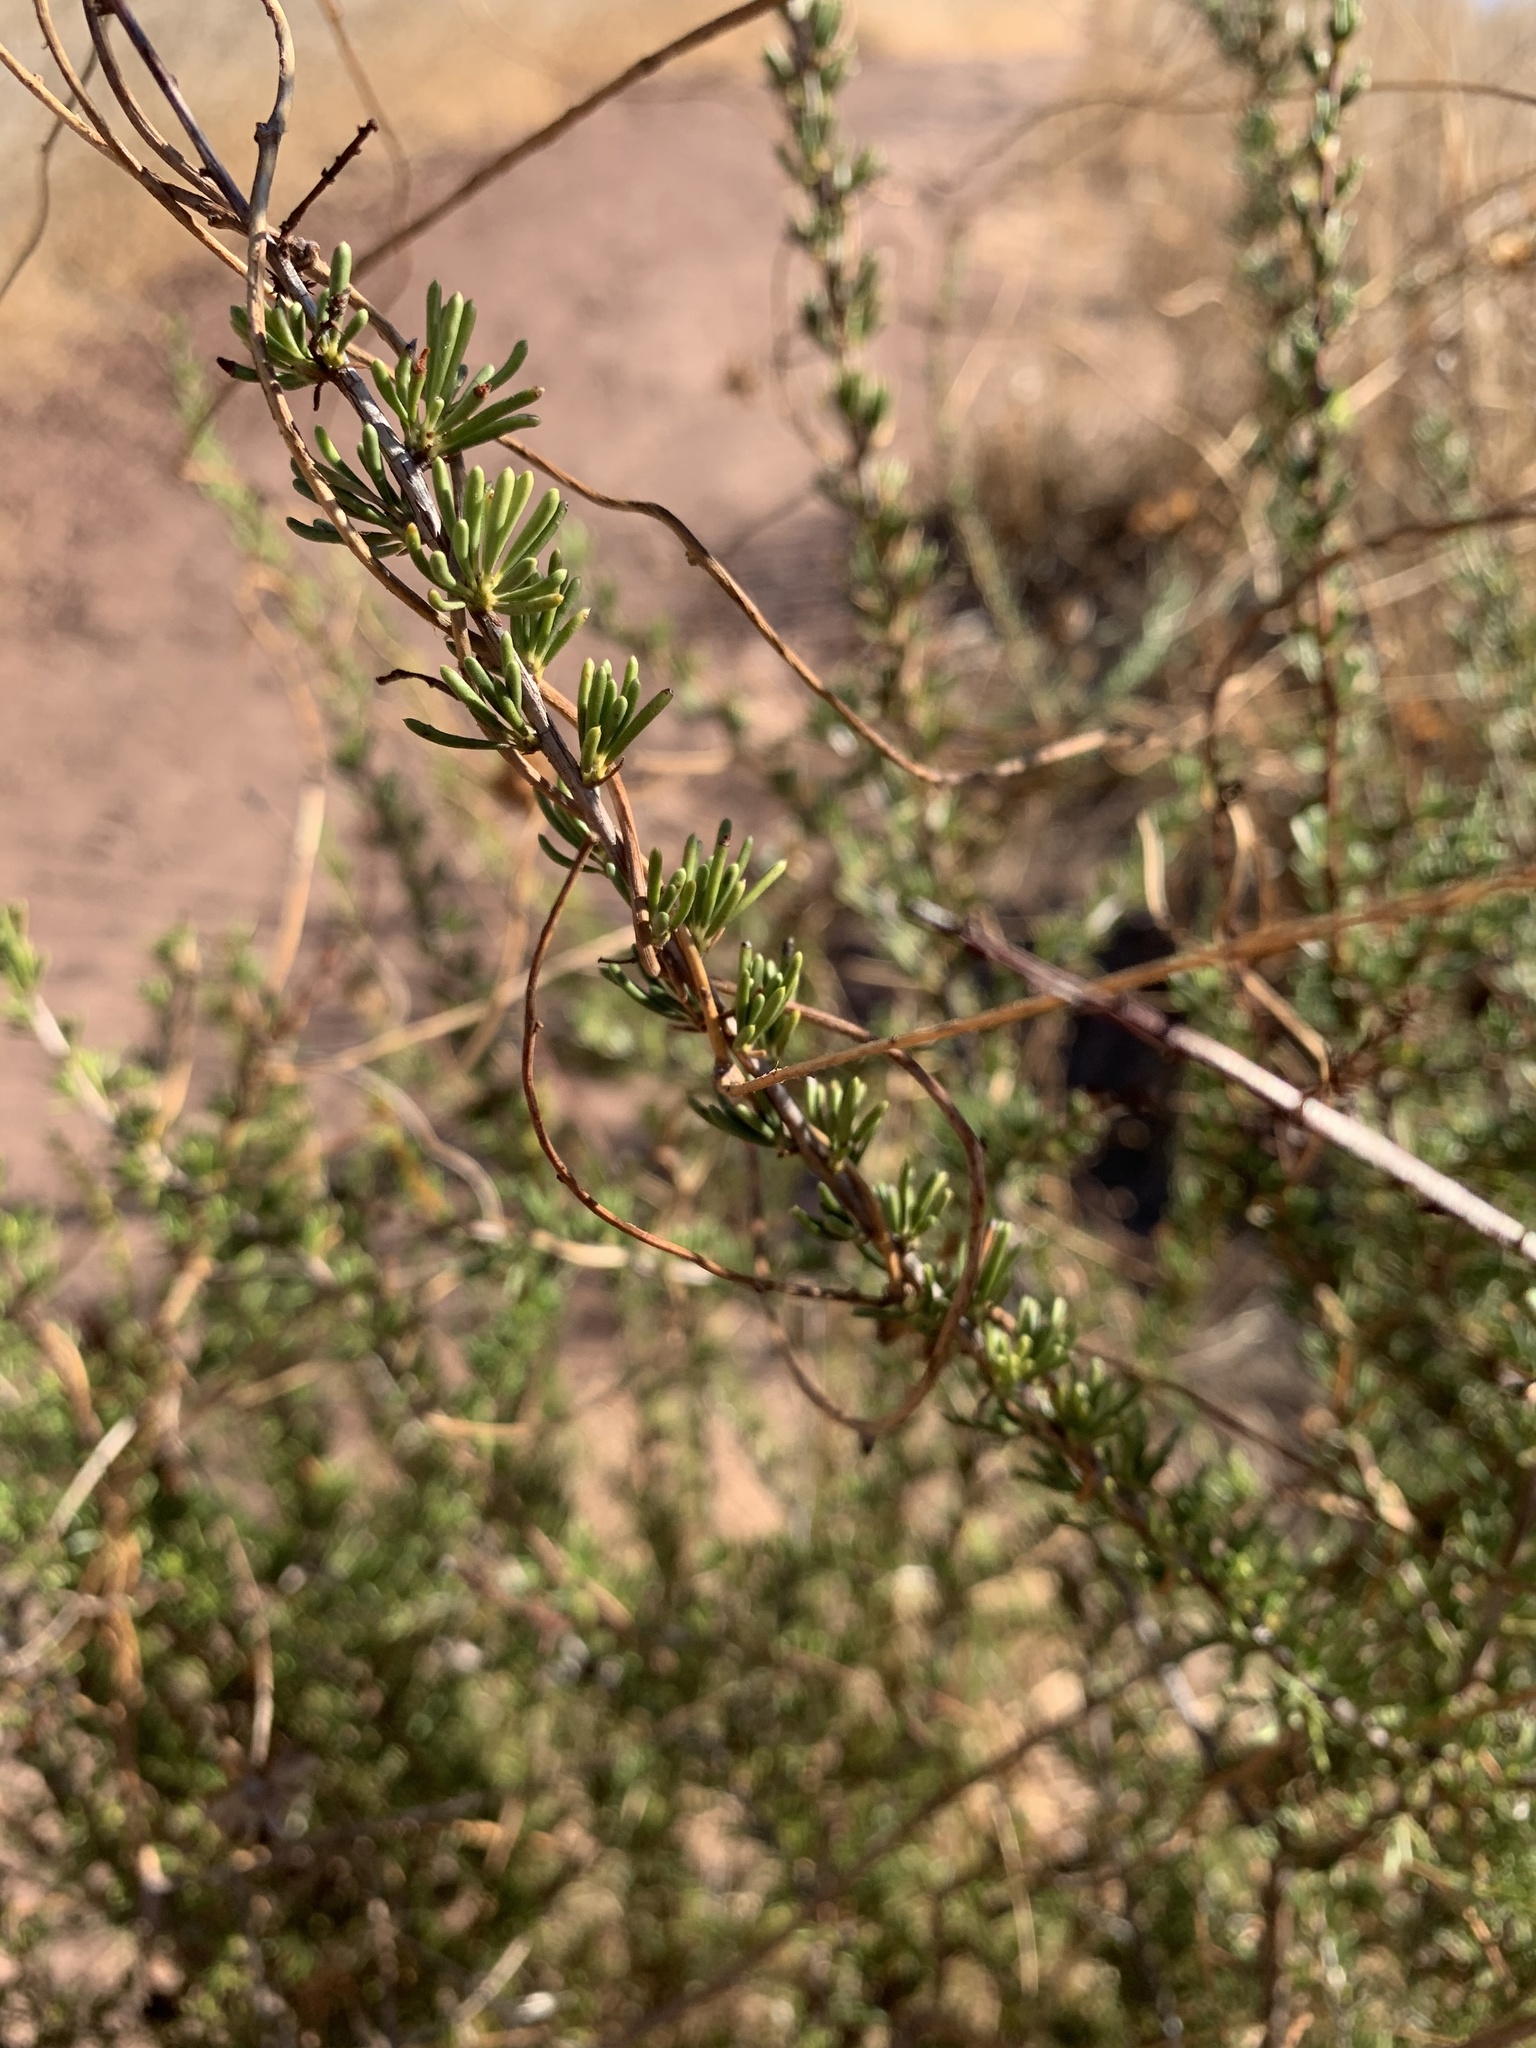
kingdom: Plantae
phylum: Tracheophyta
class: Magnoliopsida
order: Rosales
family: Rosaceae
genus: Adenostoma
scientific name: Adenostoma fasciculatum
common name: Chamise
